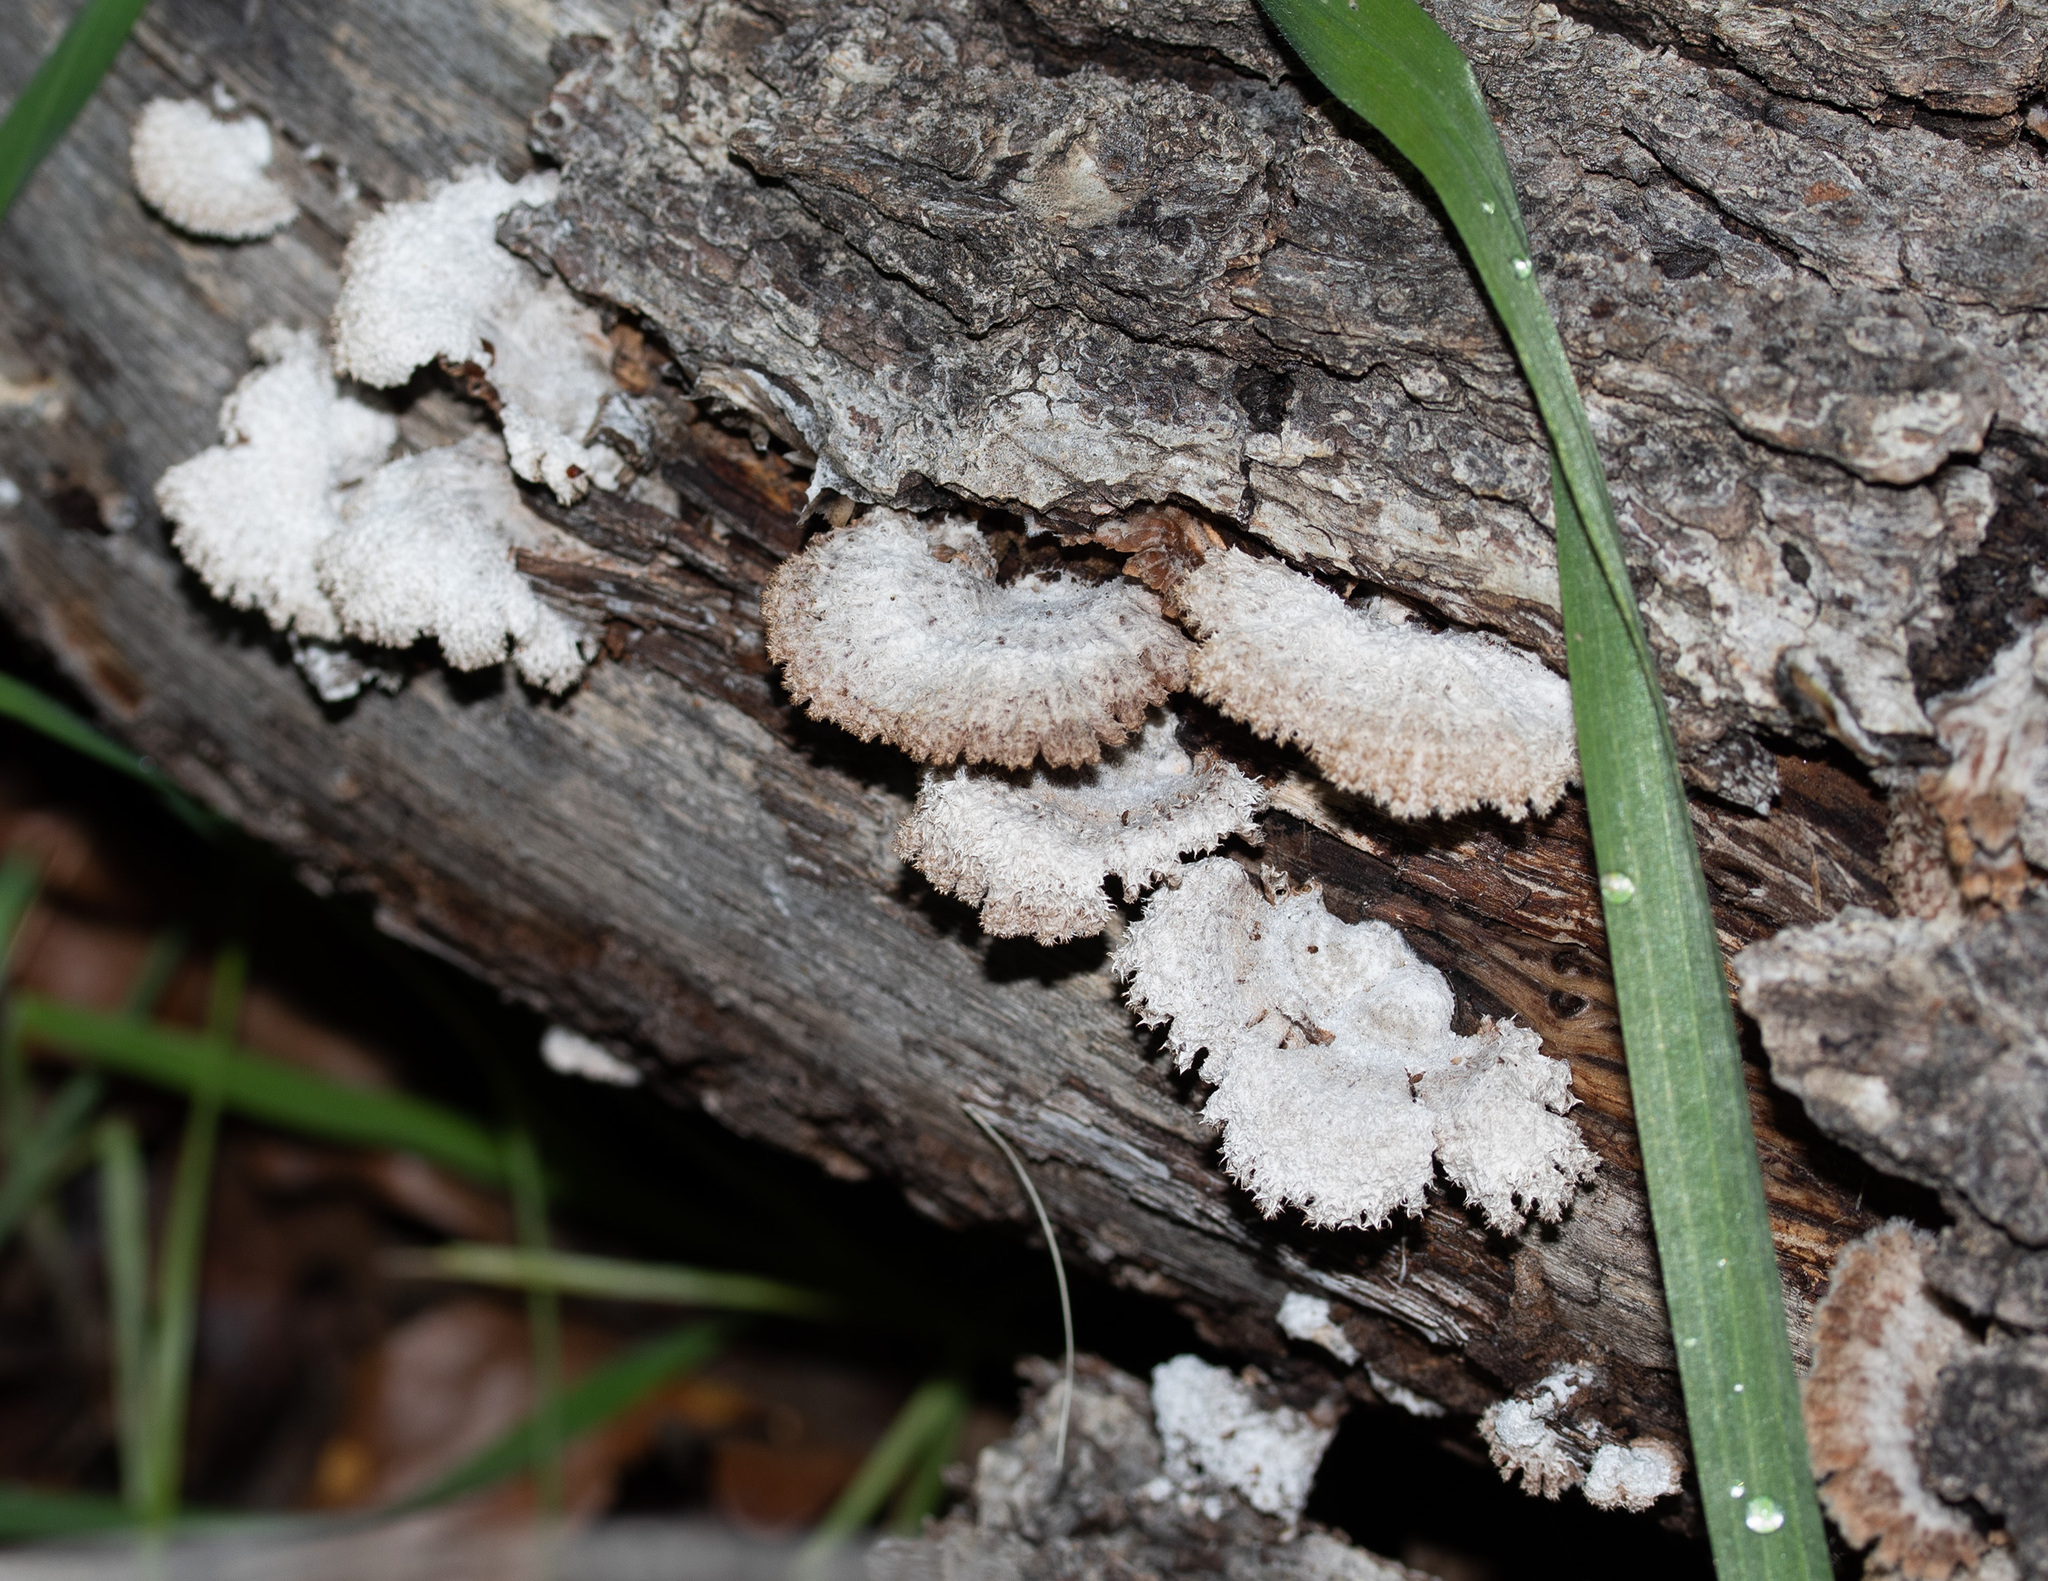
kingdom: Fungi
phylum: Basidiomycota
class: Agaricomycetes
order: Agaricales
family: Schizophyllaceae
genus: Schizophyllum
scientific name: Schizophyllum commune
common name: Common porecrust
